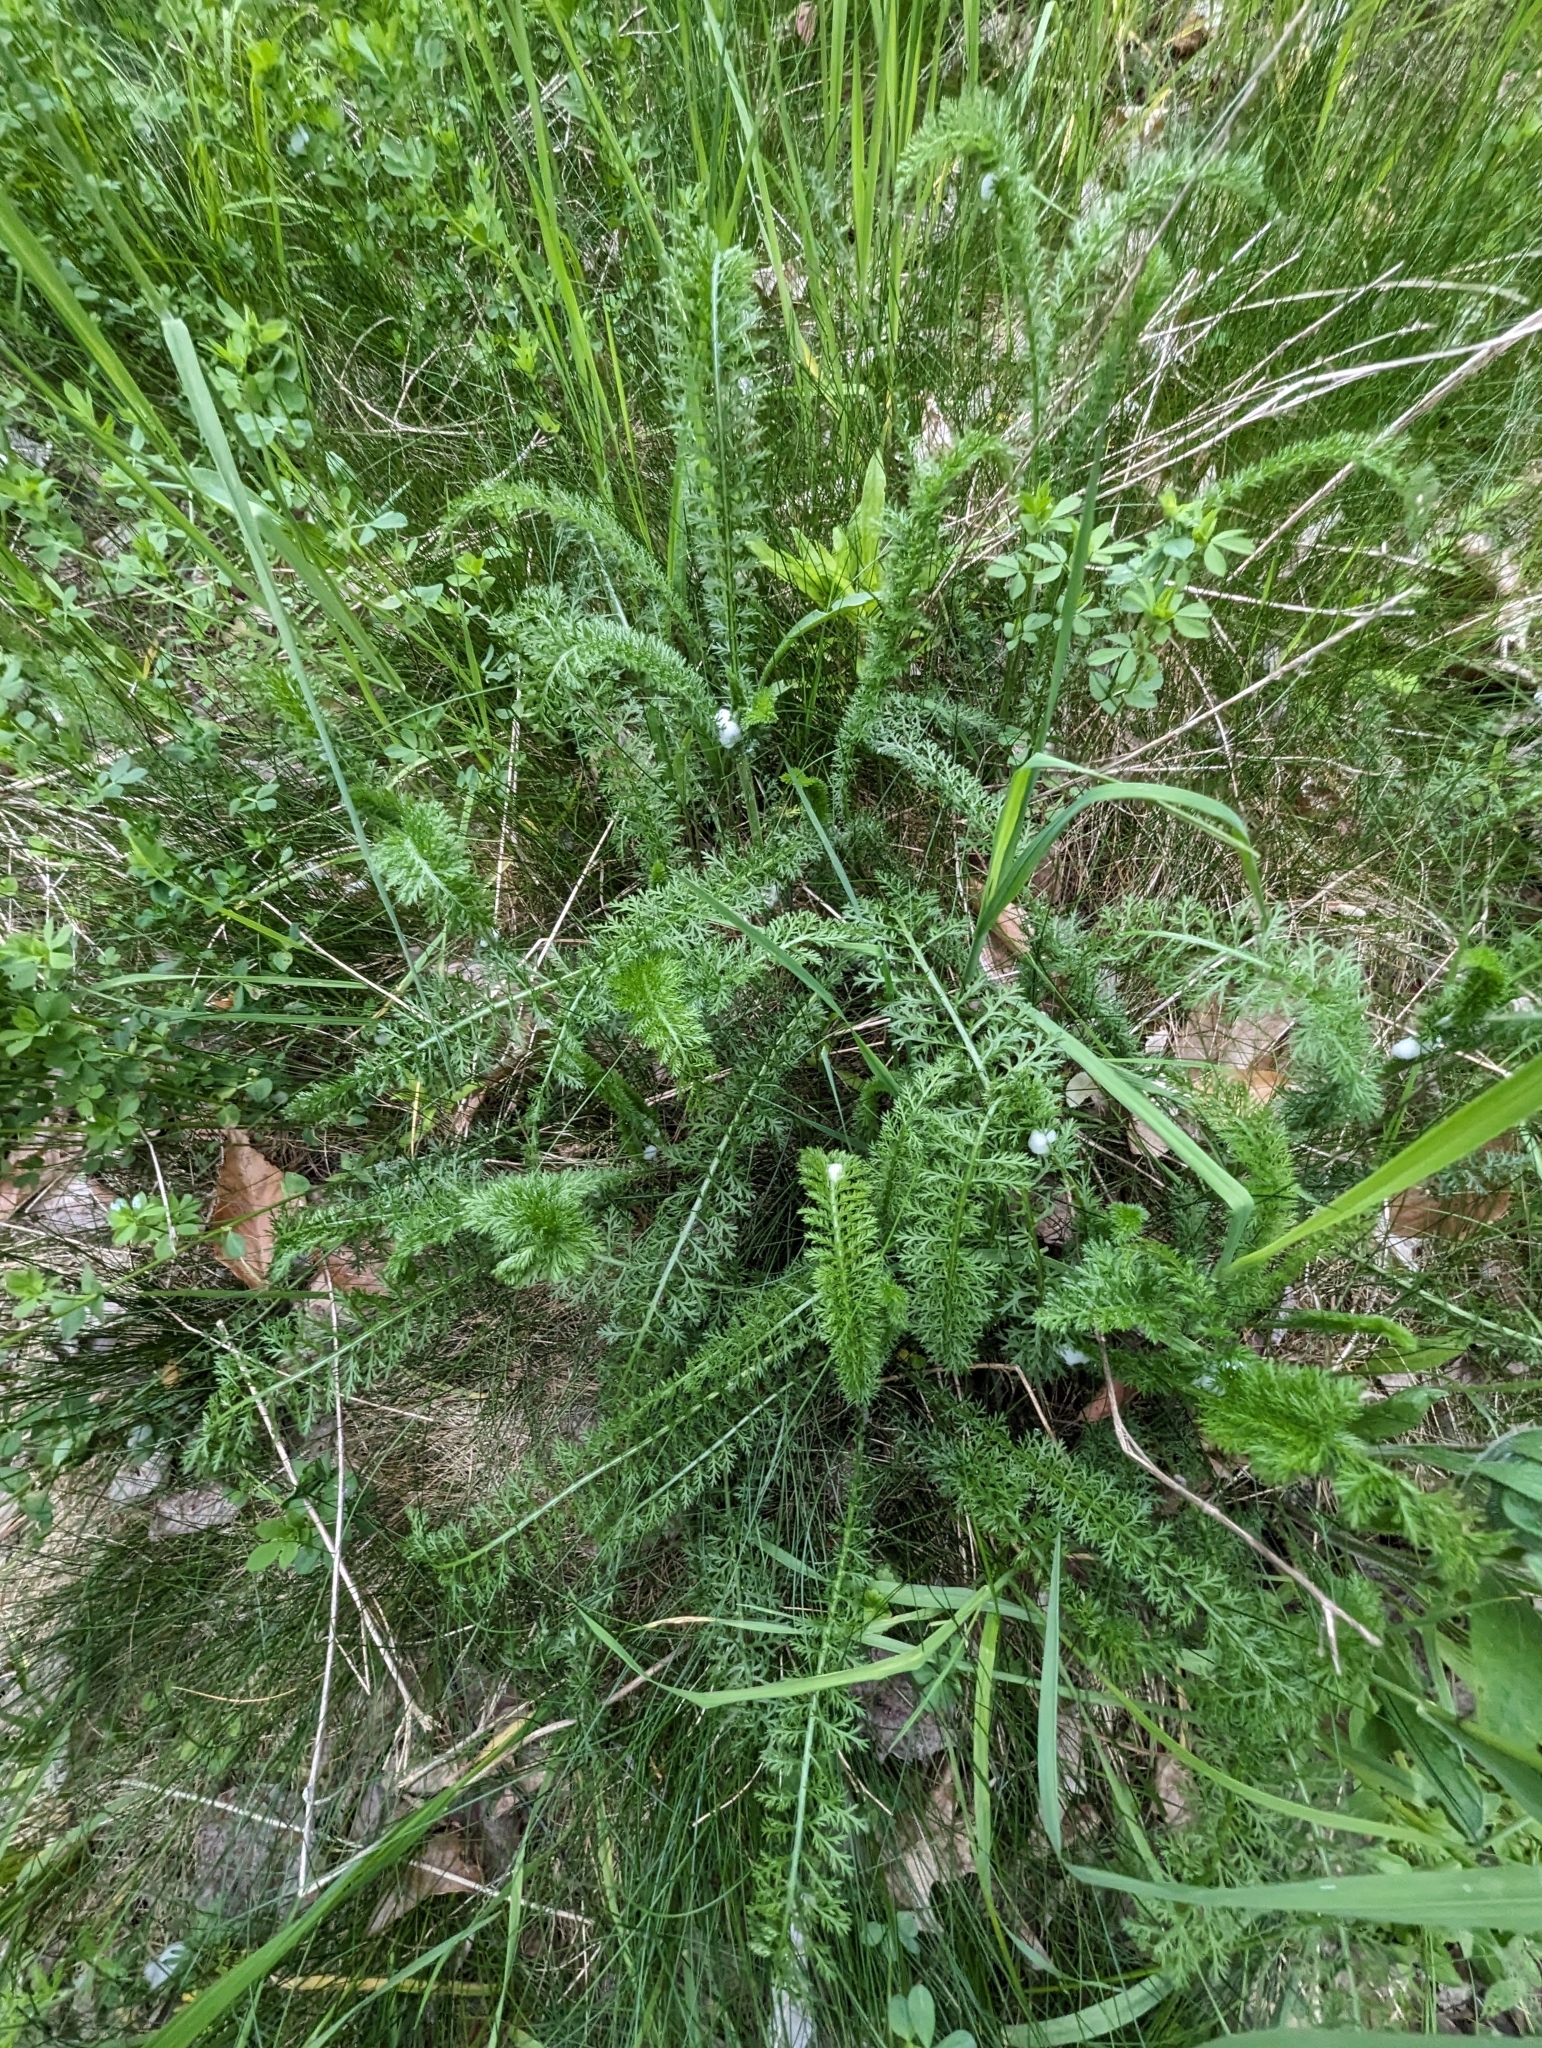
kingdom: Plantae
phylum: Tracheophyta
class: Magnoliopsida
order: Asterales
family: Asteraceae
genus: Achillea
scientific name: Achillea millefolium
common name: Yarrow
